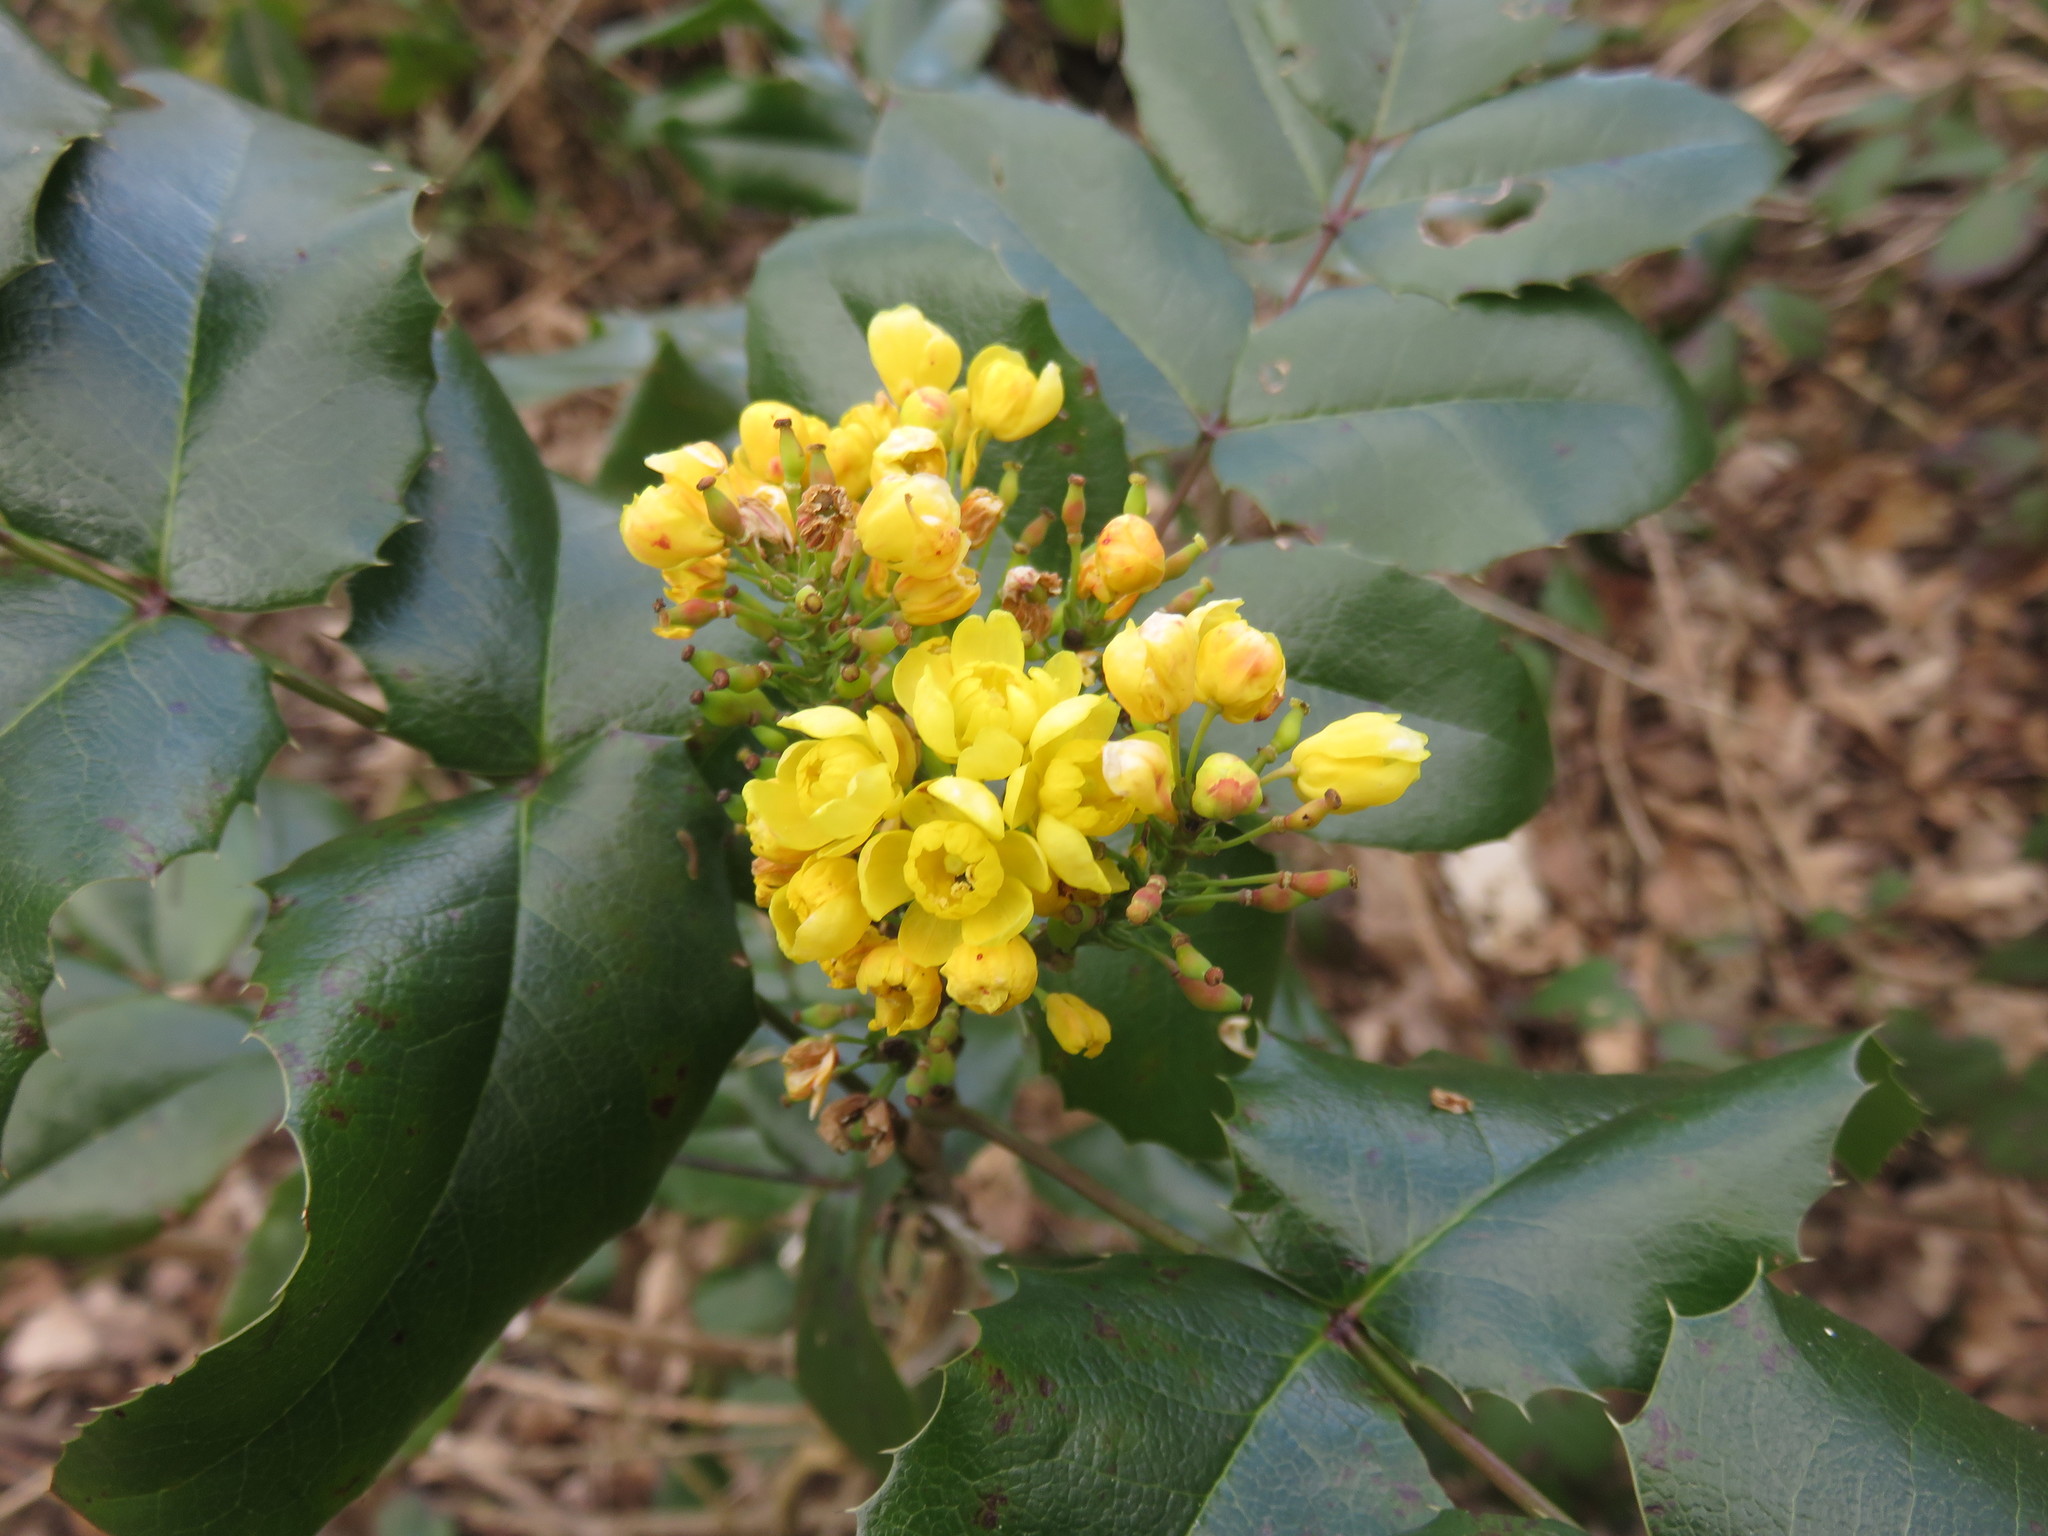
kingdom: Plantae
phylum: Tracheophyta
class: Magnoliopsida
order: Ranunculales
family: Berberidaceae
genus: Mahonia
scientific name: Mahonia aquifolium
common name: Oregon-grape
